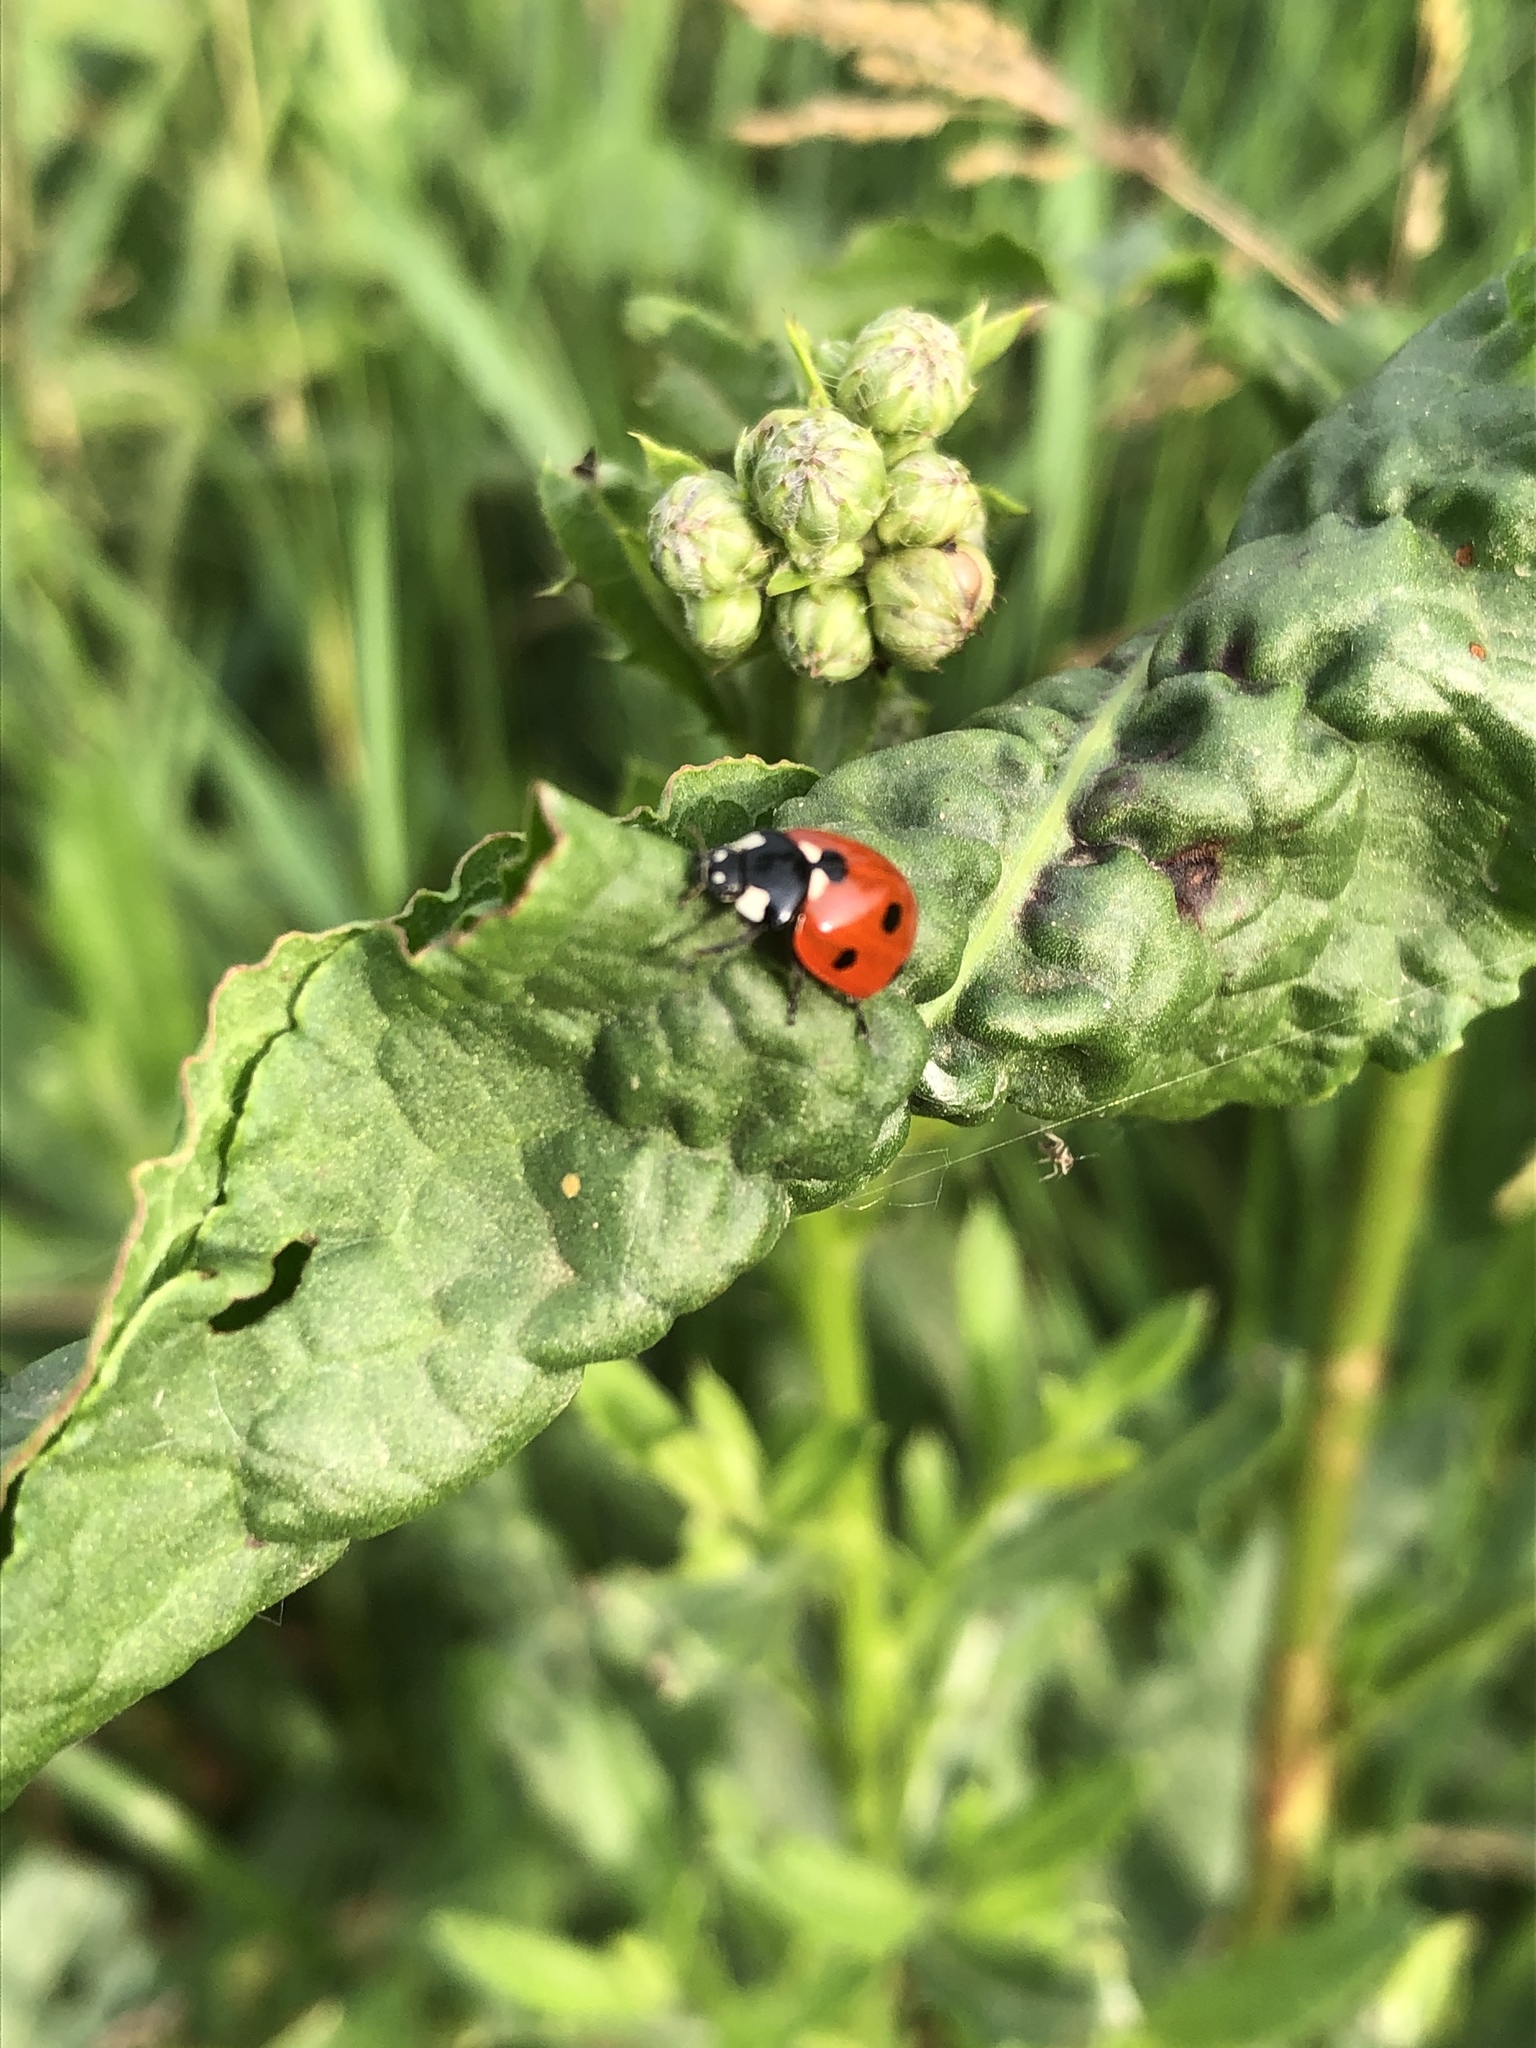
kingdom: Animalia
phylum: Arthropoda
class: Insecta
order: Coleoptera
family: Coccinellidae
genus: Coccinella
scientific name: Coccinella septempunctata
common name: Sevenspotted lady beetle
